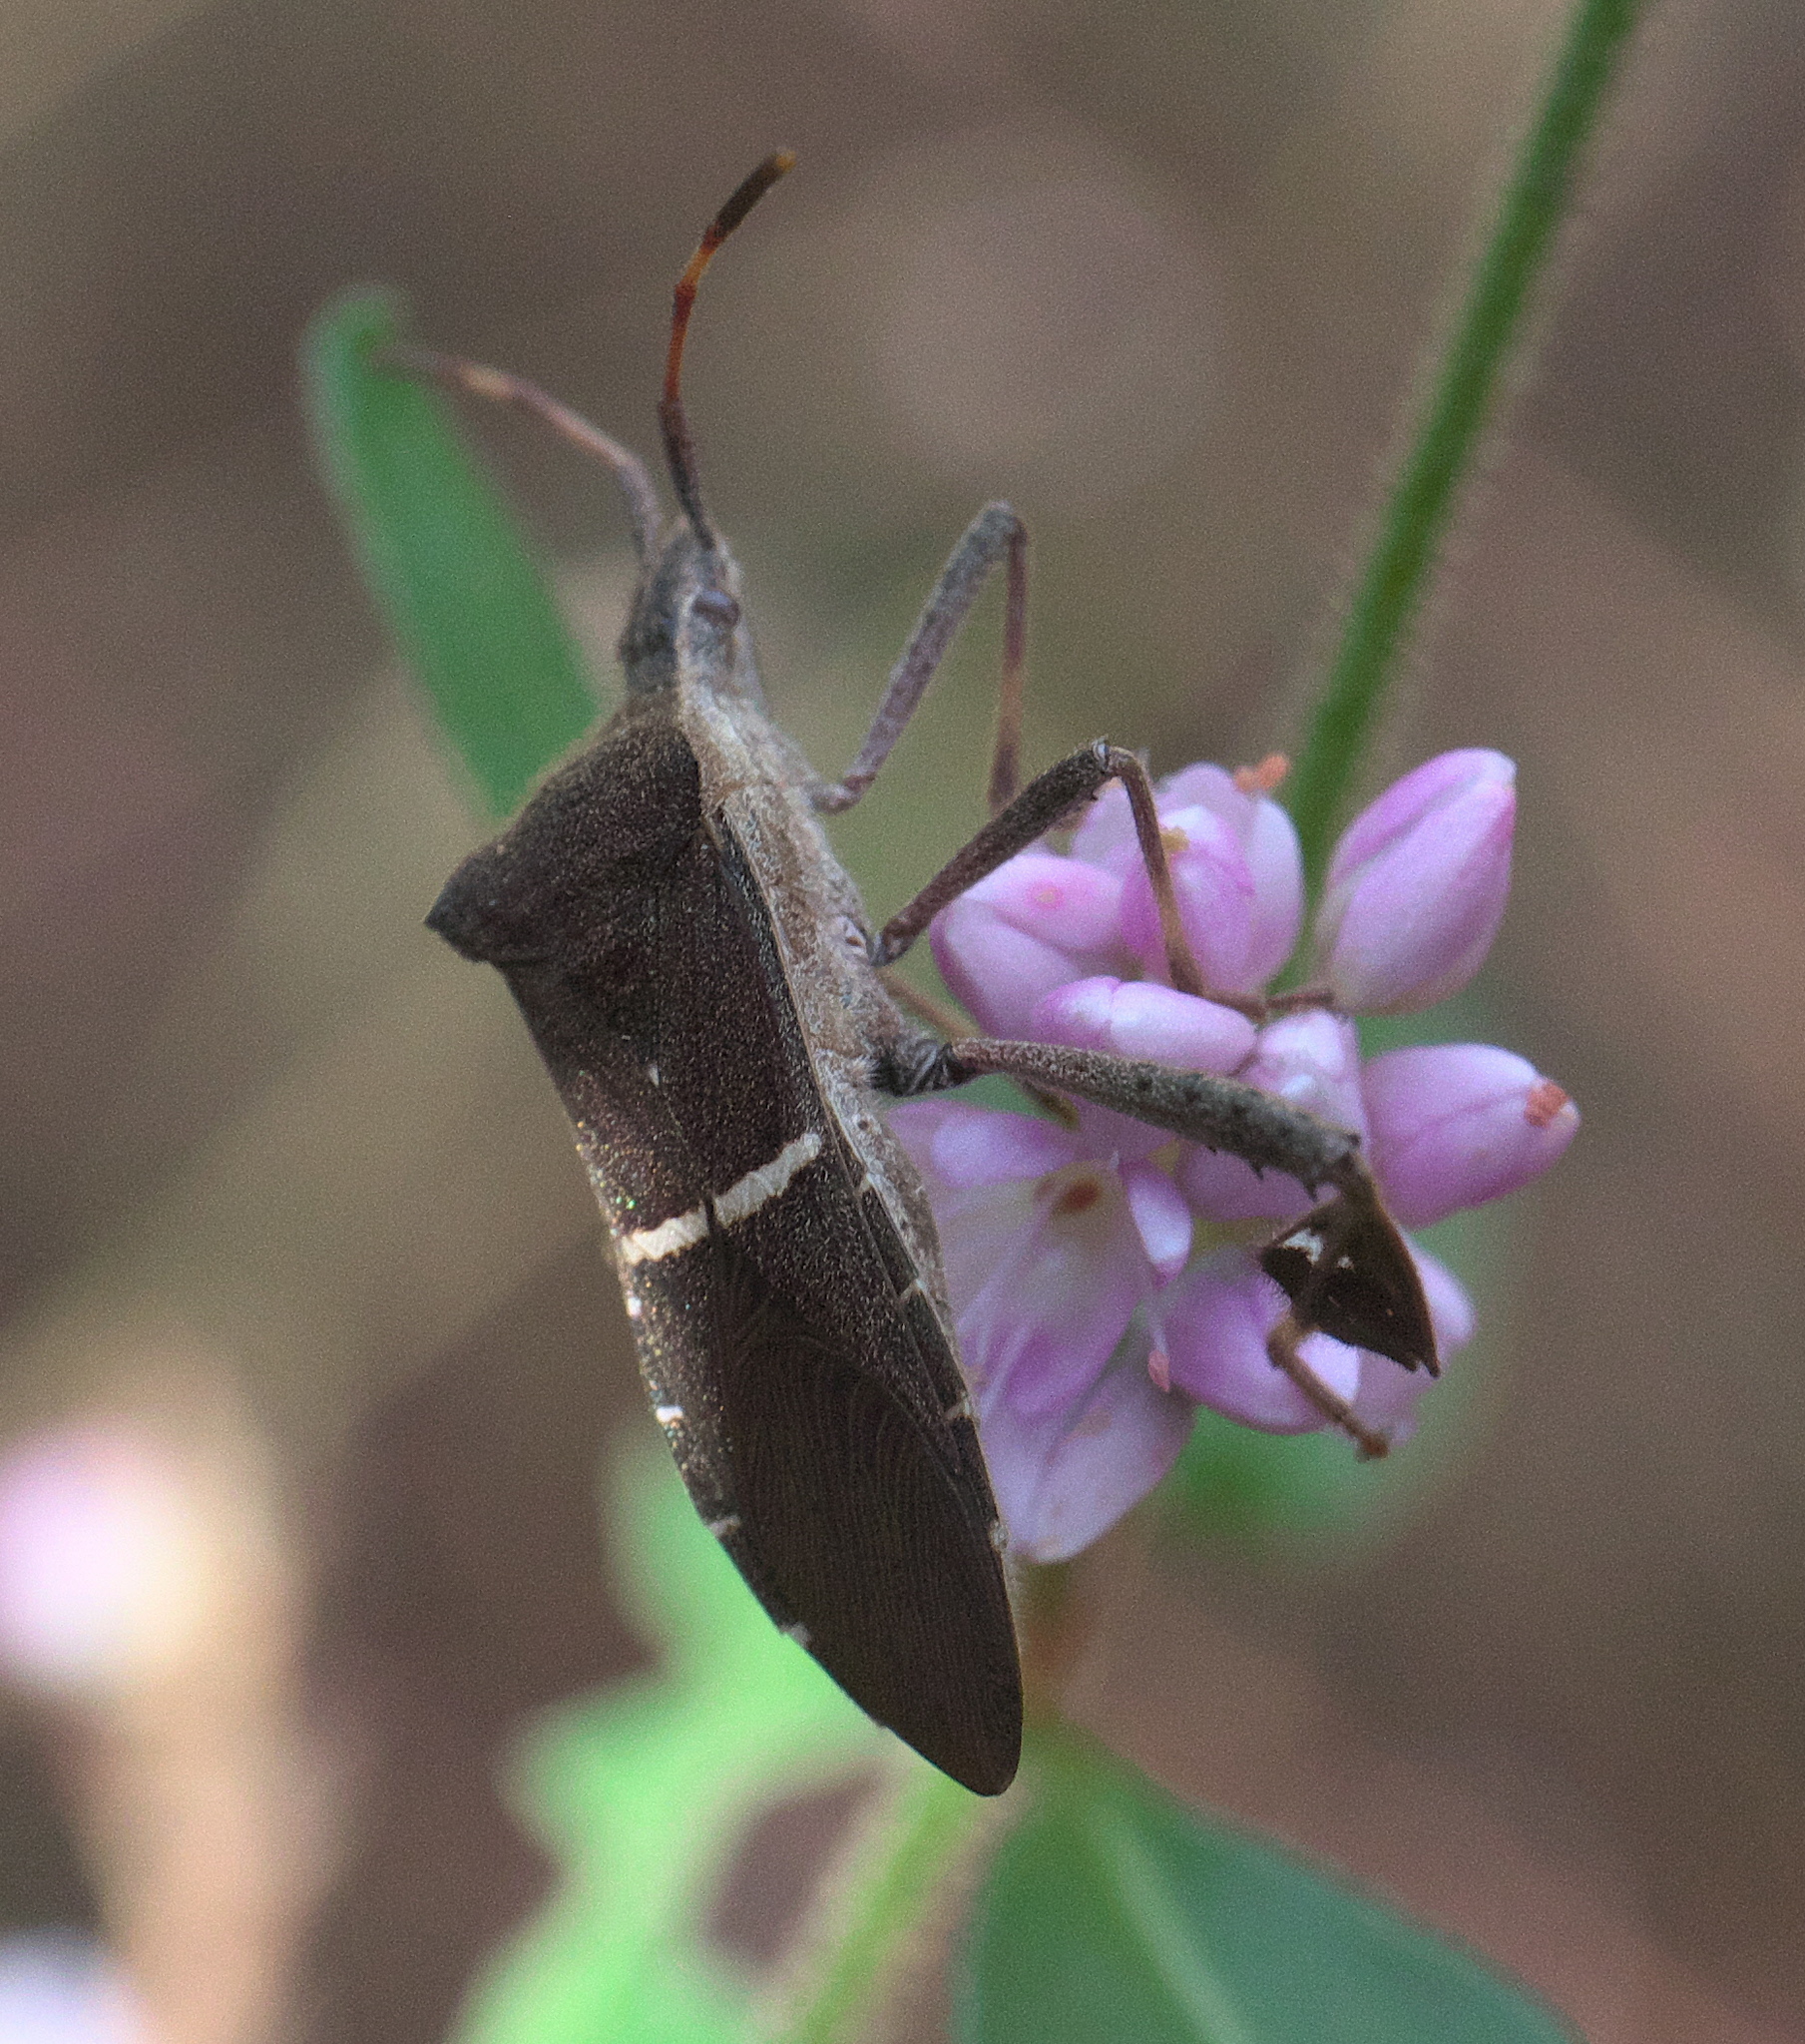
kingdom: Animalia
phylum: Arthropoda
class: Insecta
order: Hemiptera
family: Coreidae
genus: Leptoglossus
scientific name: Leptoglossus phyllopus
